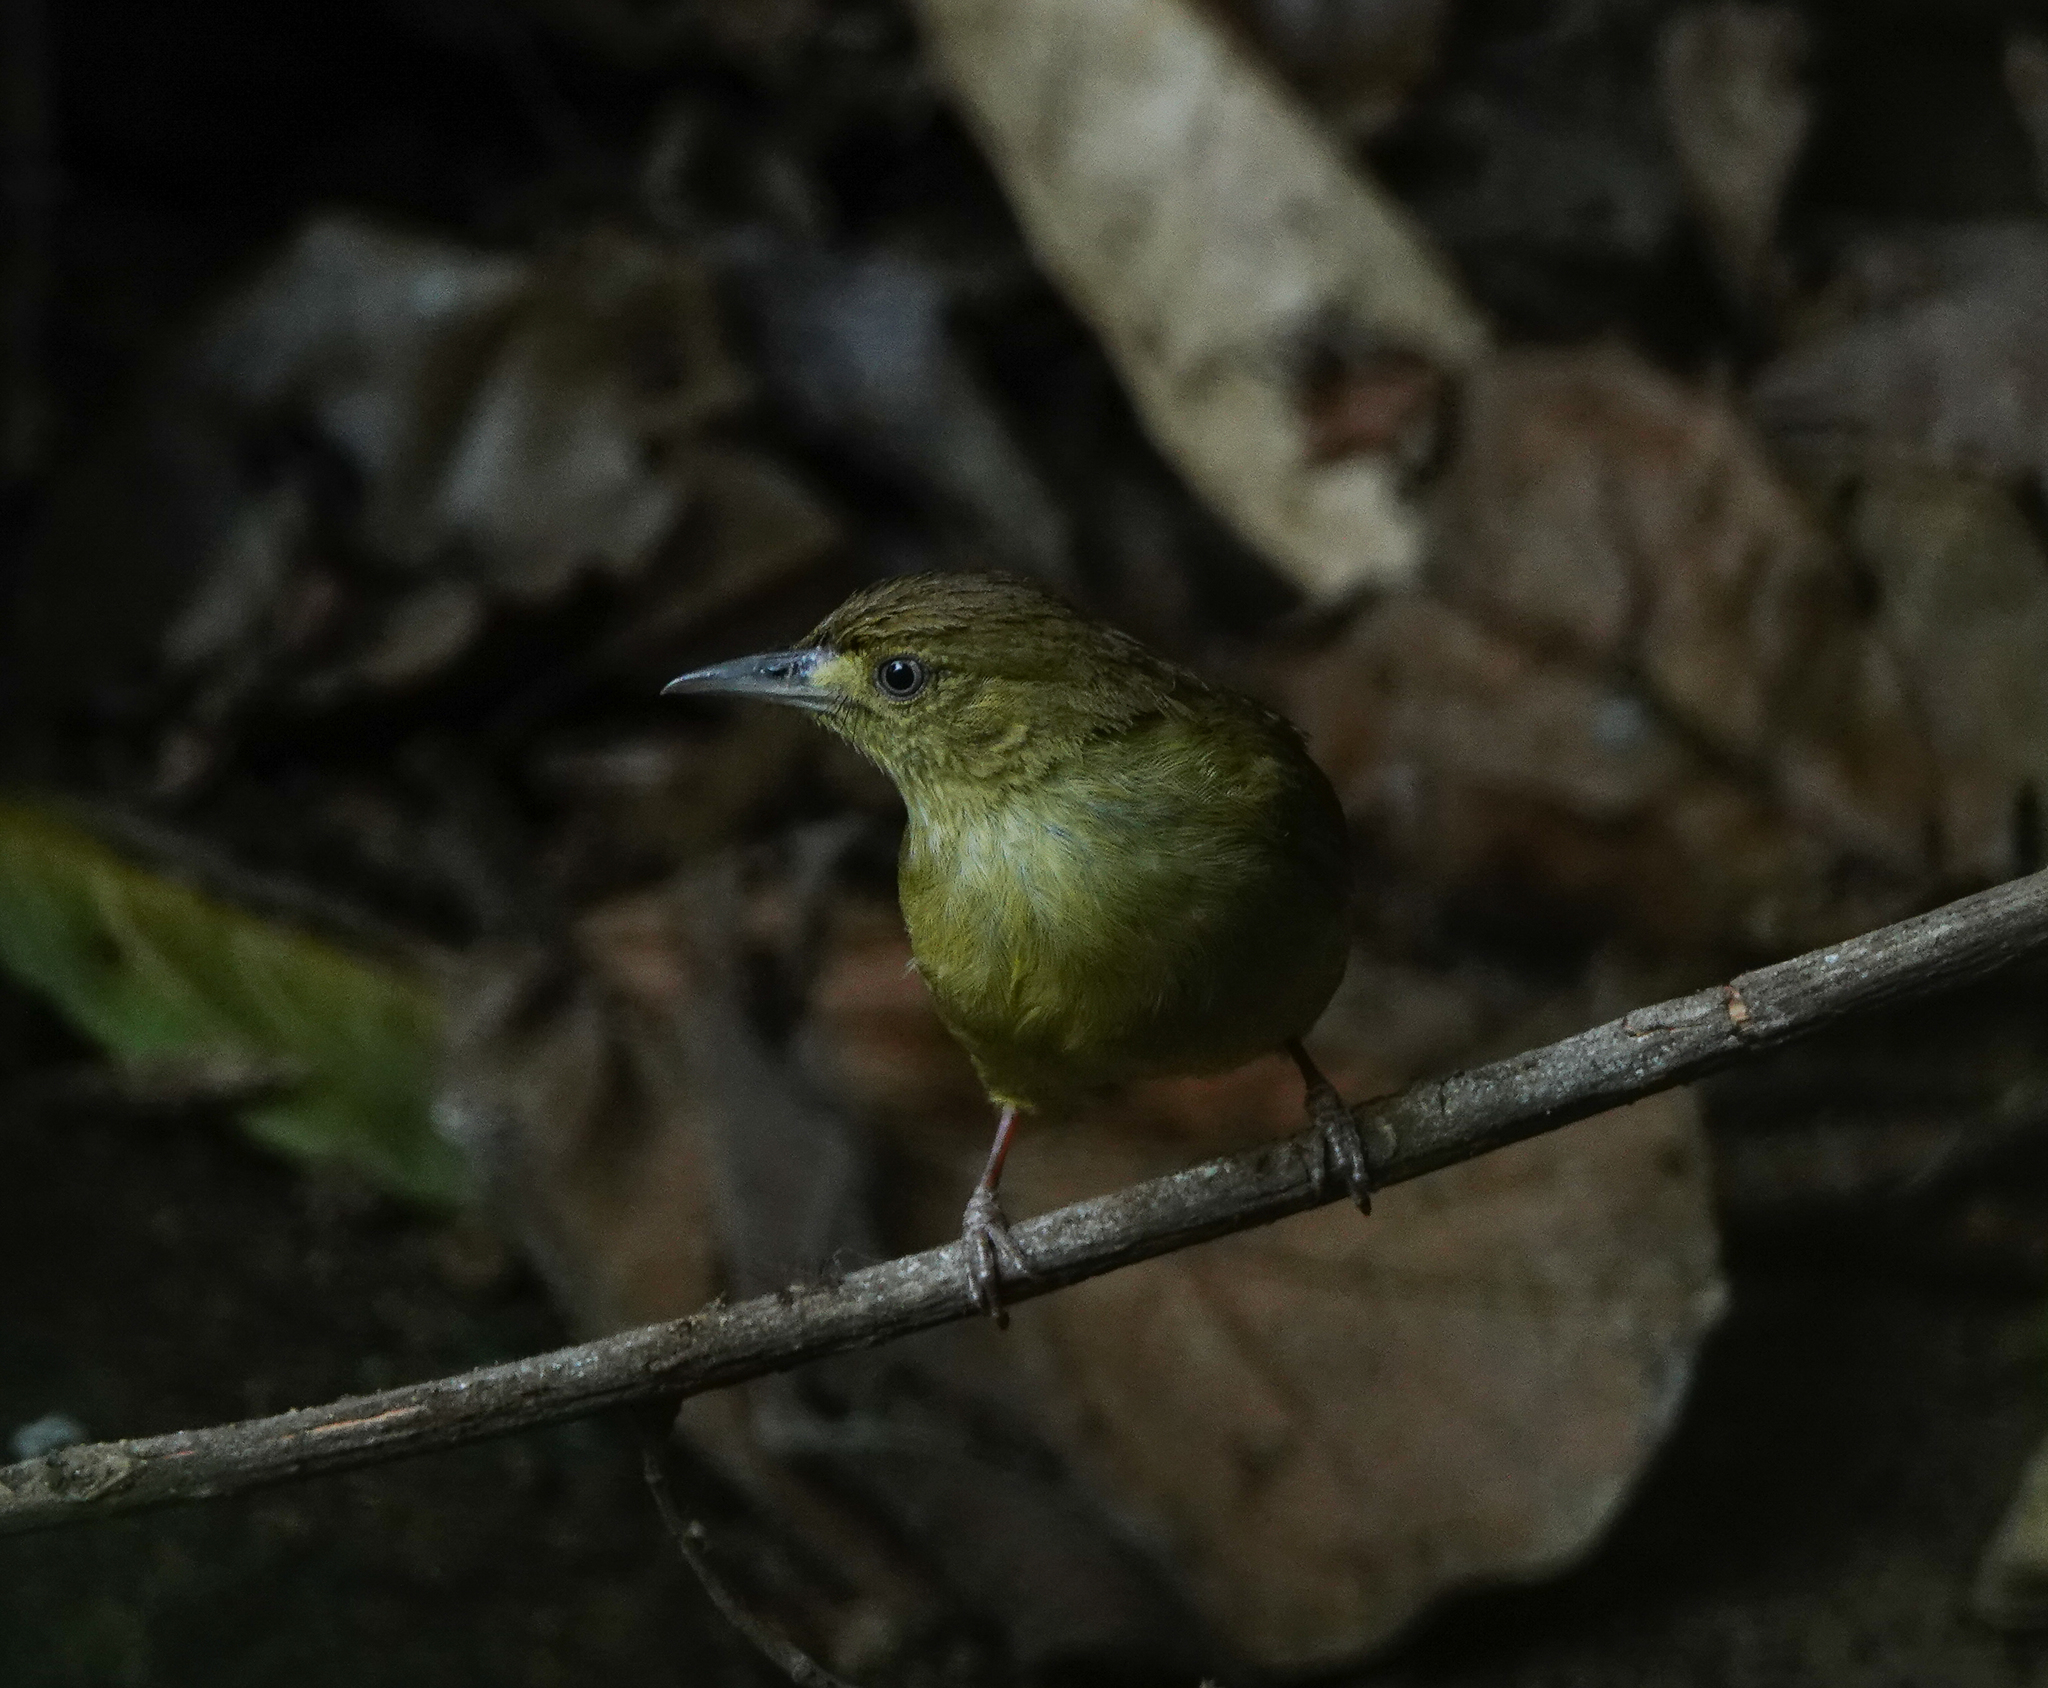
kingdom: Animalia
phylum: Chordata
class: Aves
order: Passeriformes
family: Pycnonotidae
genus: Iole
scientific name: Iole virescens
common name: Olive bulbul
